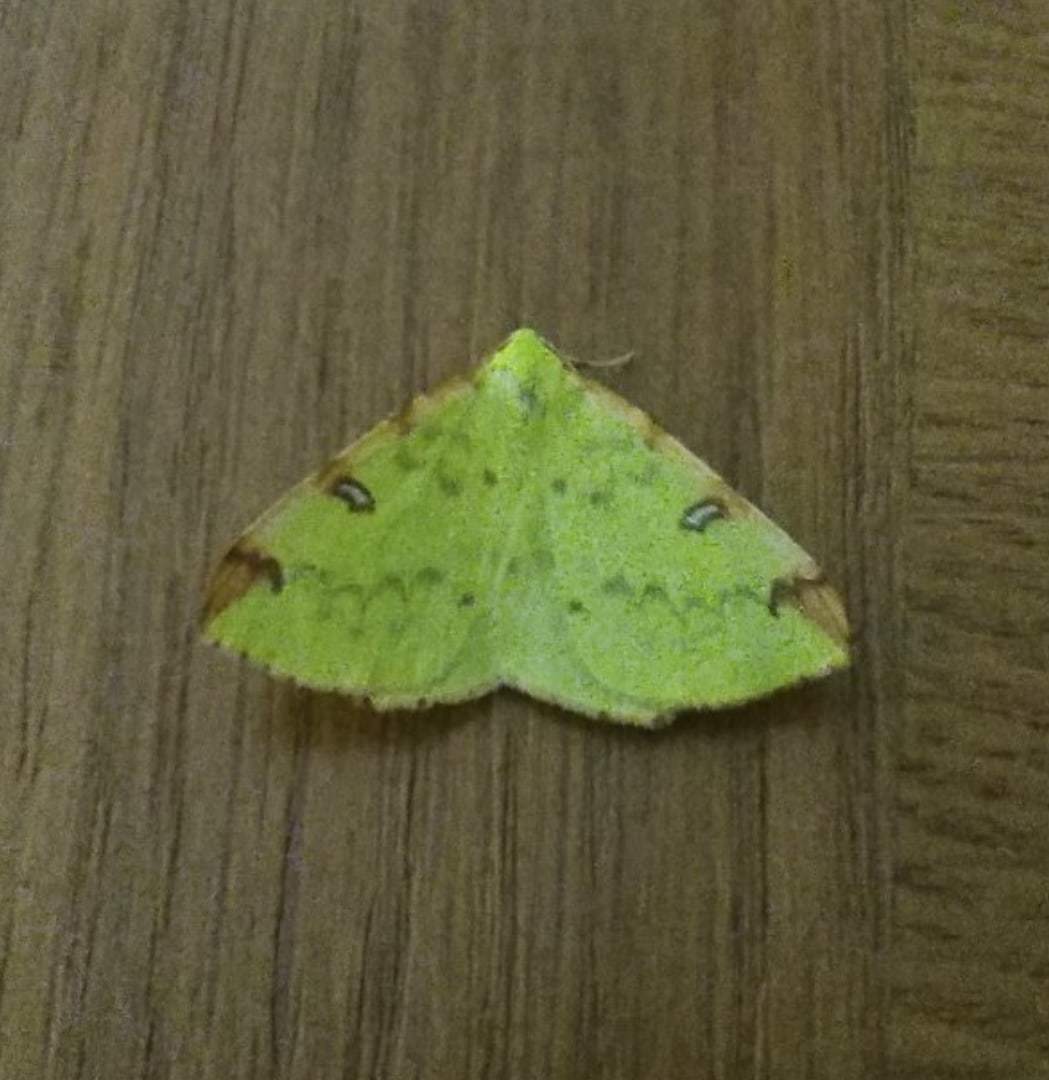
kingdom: Animalia
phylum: Arthropoda
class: Insecta
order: Lepidoptera
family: Geometridae
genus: Opisthograptis
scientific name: Opisthograptis luteolata
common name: Brimstone moth
